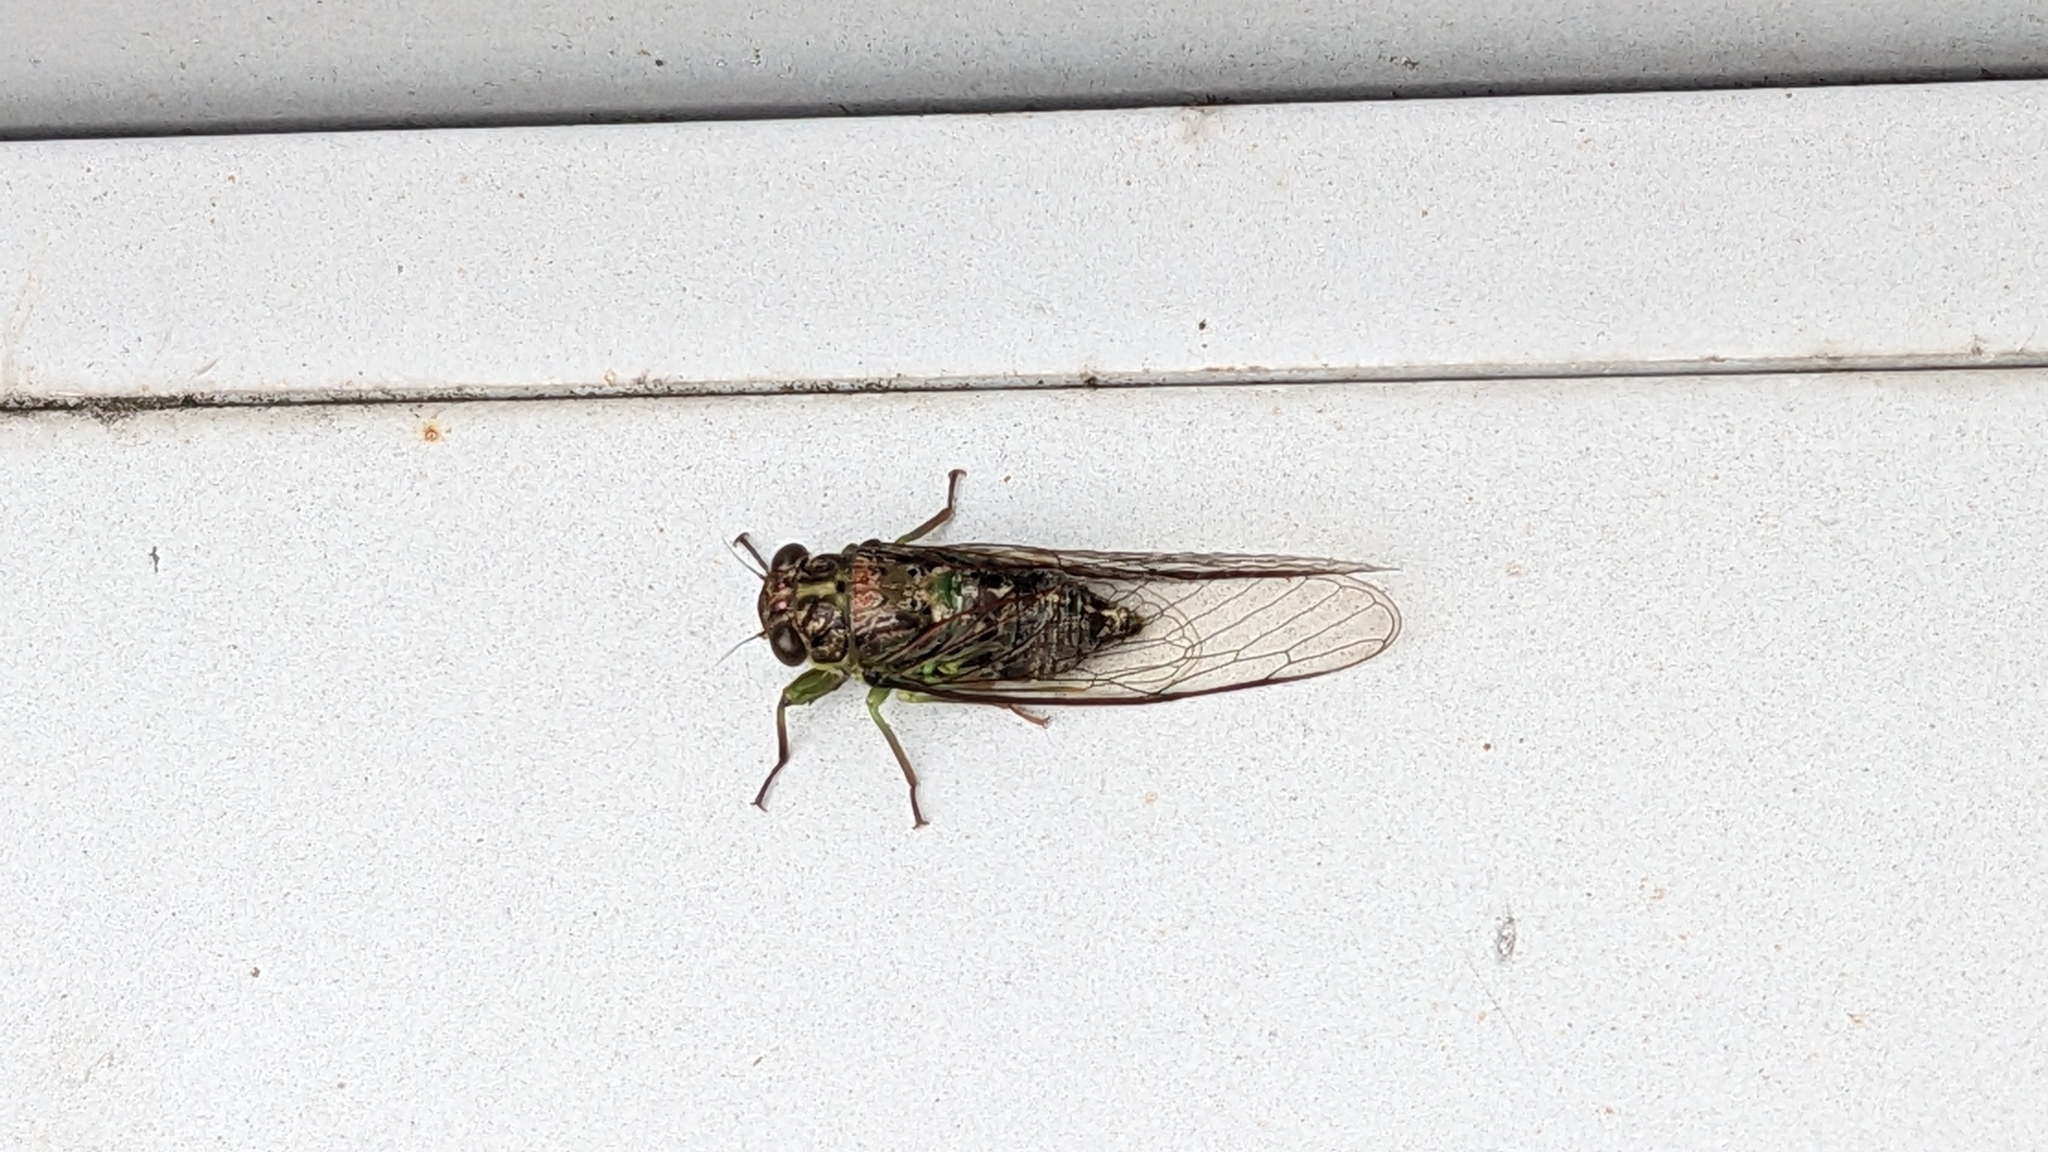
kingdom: Animalia
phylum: Arthropoda
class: Insecta
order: Hemiptera
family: Cicadidae
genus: Kikihia
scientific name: Kikihia scutellaris
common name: Lesser bronze cicada
